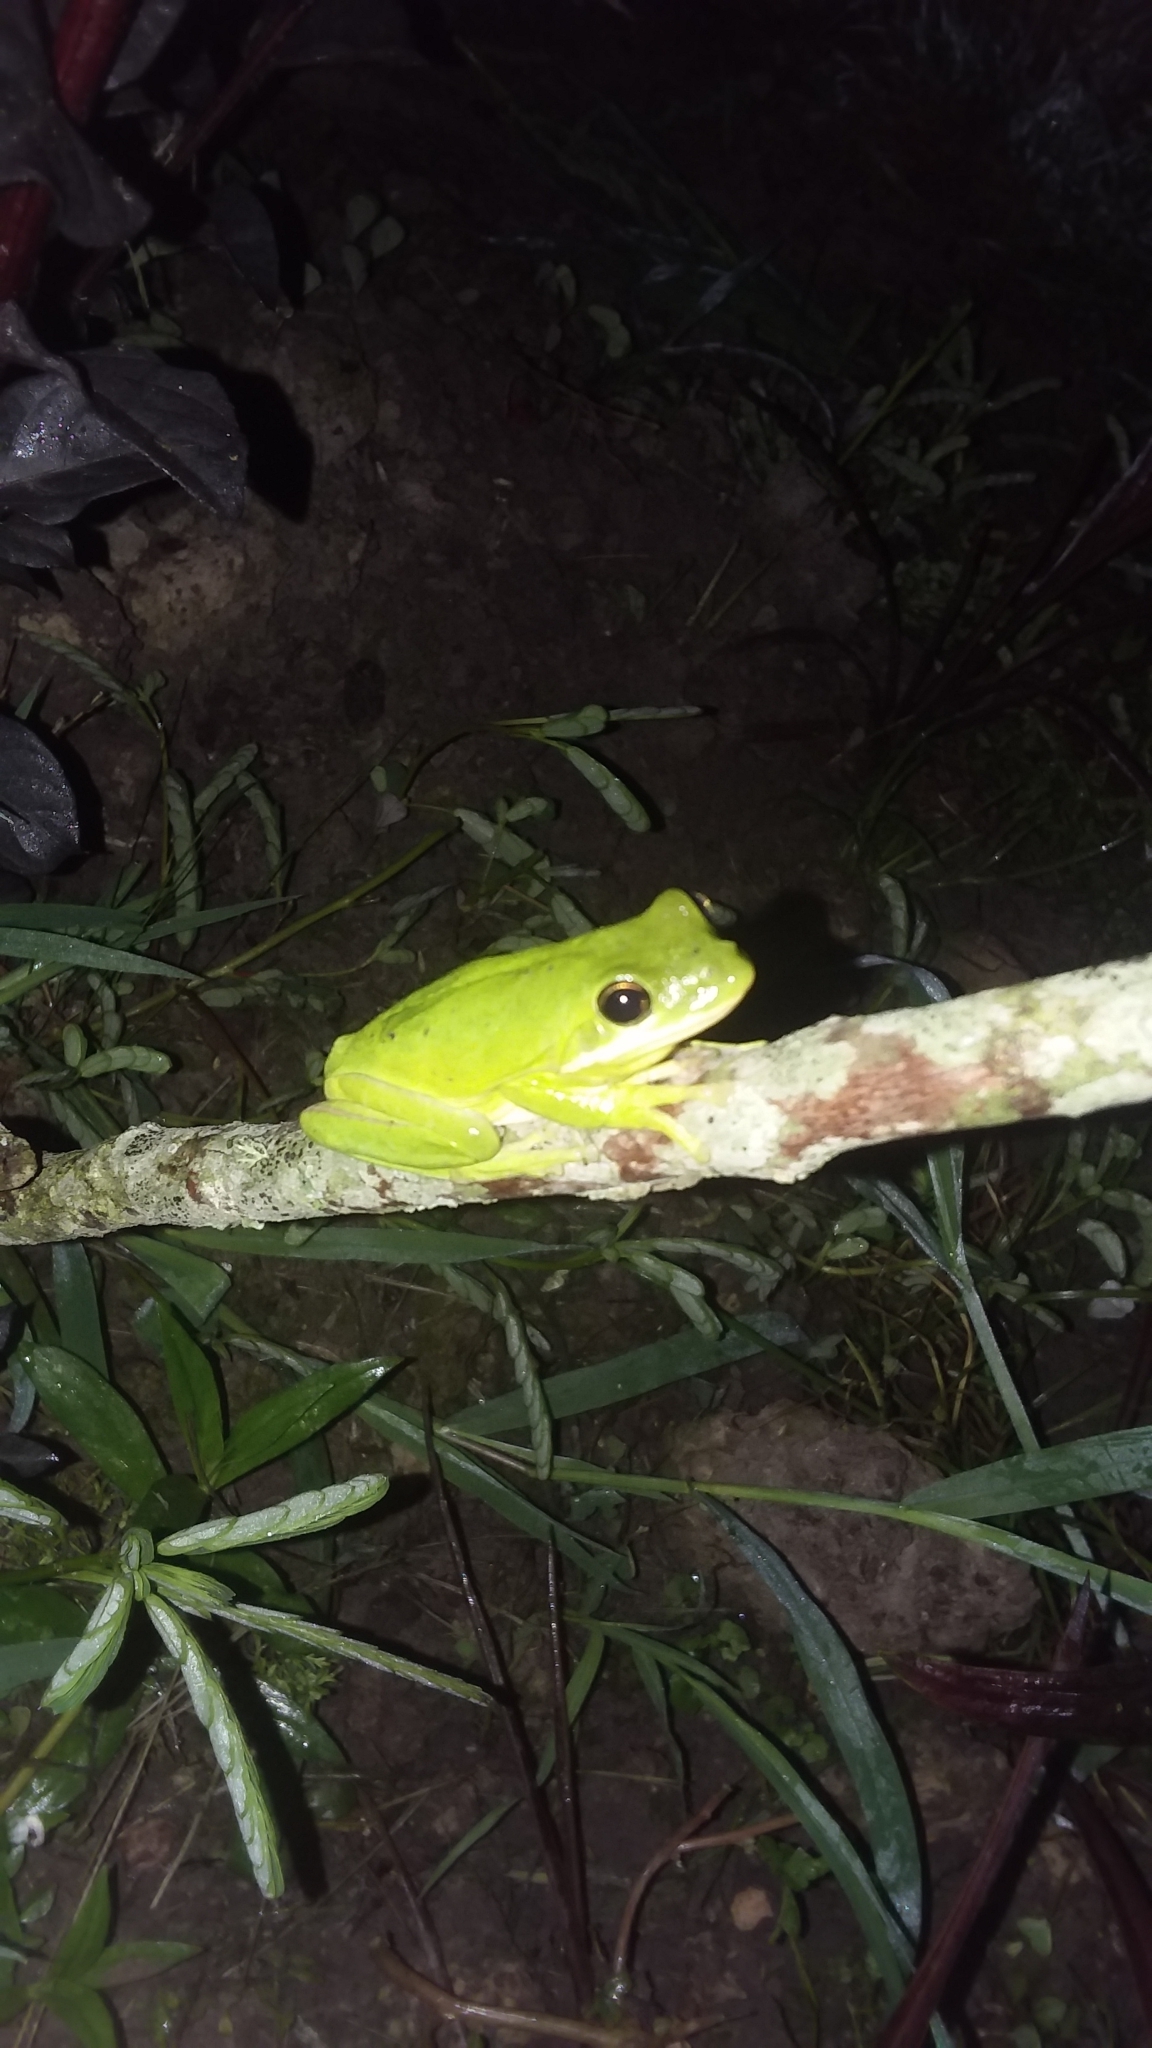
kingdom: Animalia
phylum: Chordata
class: Amphibia
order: Anura
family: Hylidae
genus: Dryophytes
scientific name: Dryophytes cinereus
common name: Green treefrog
